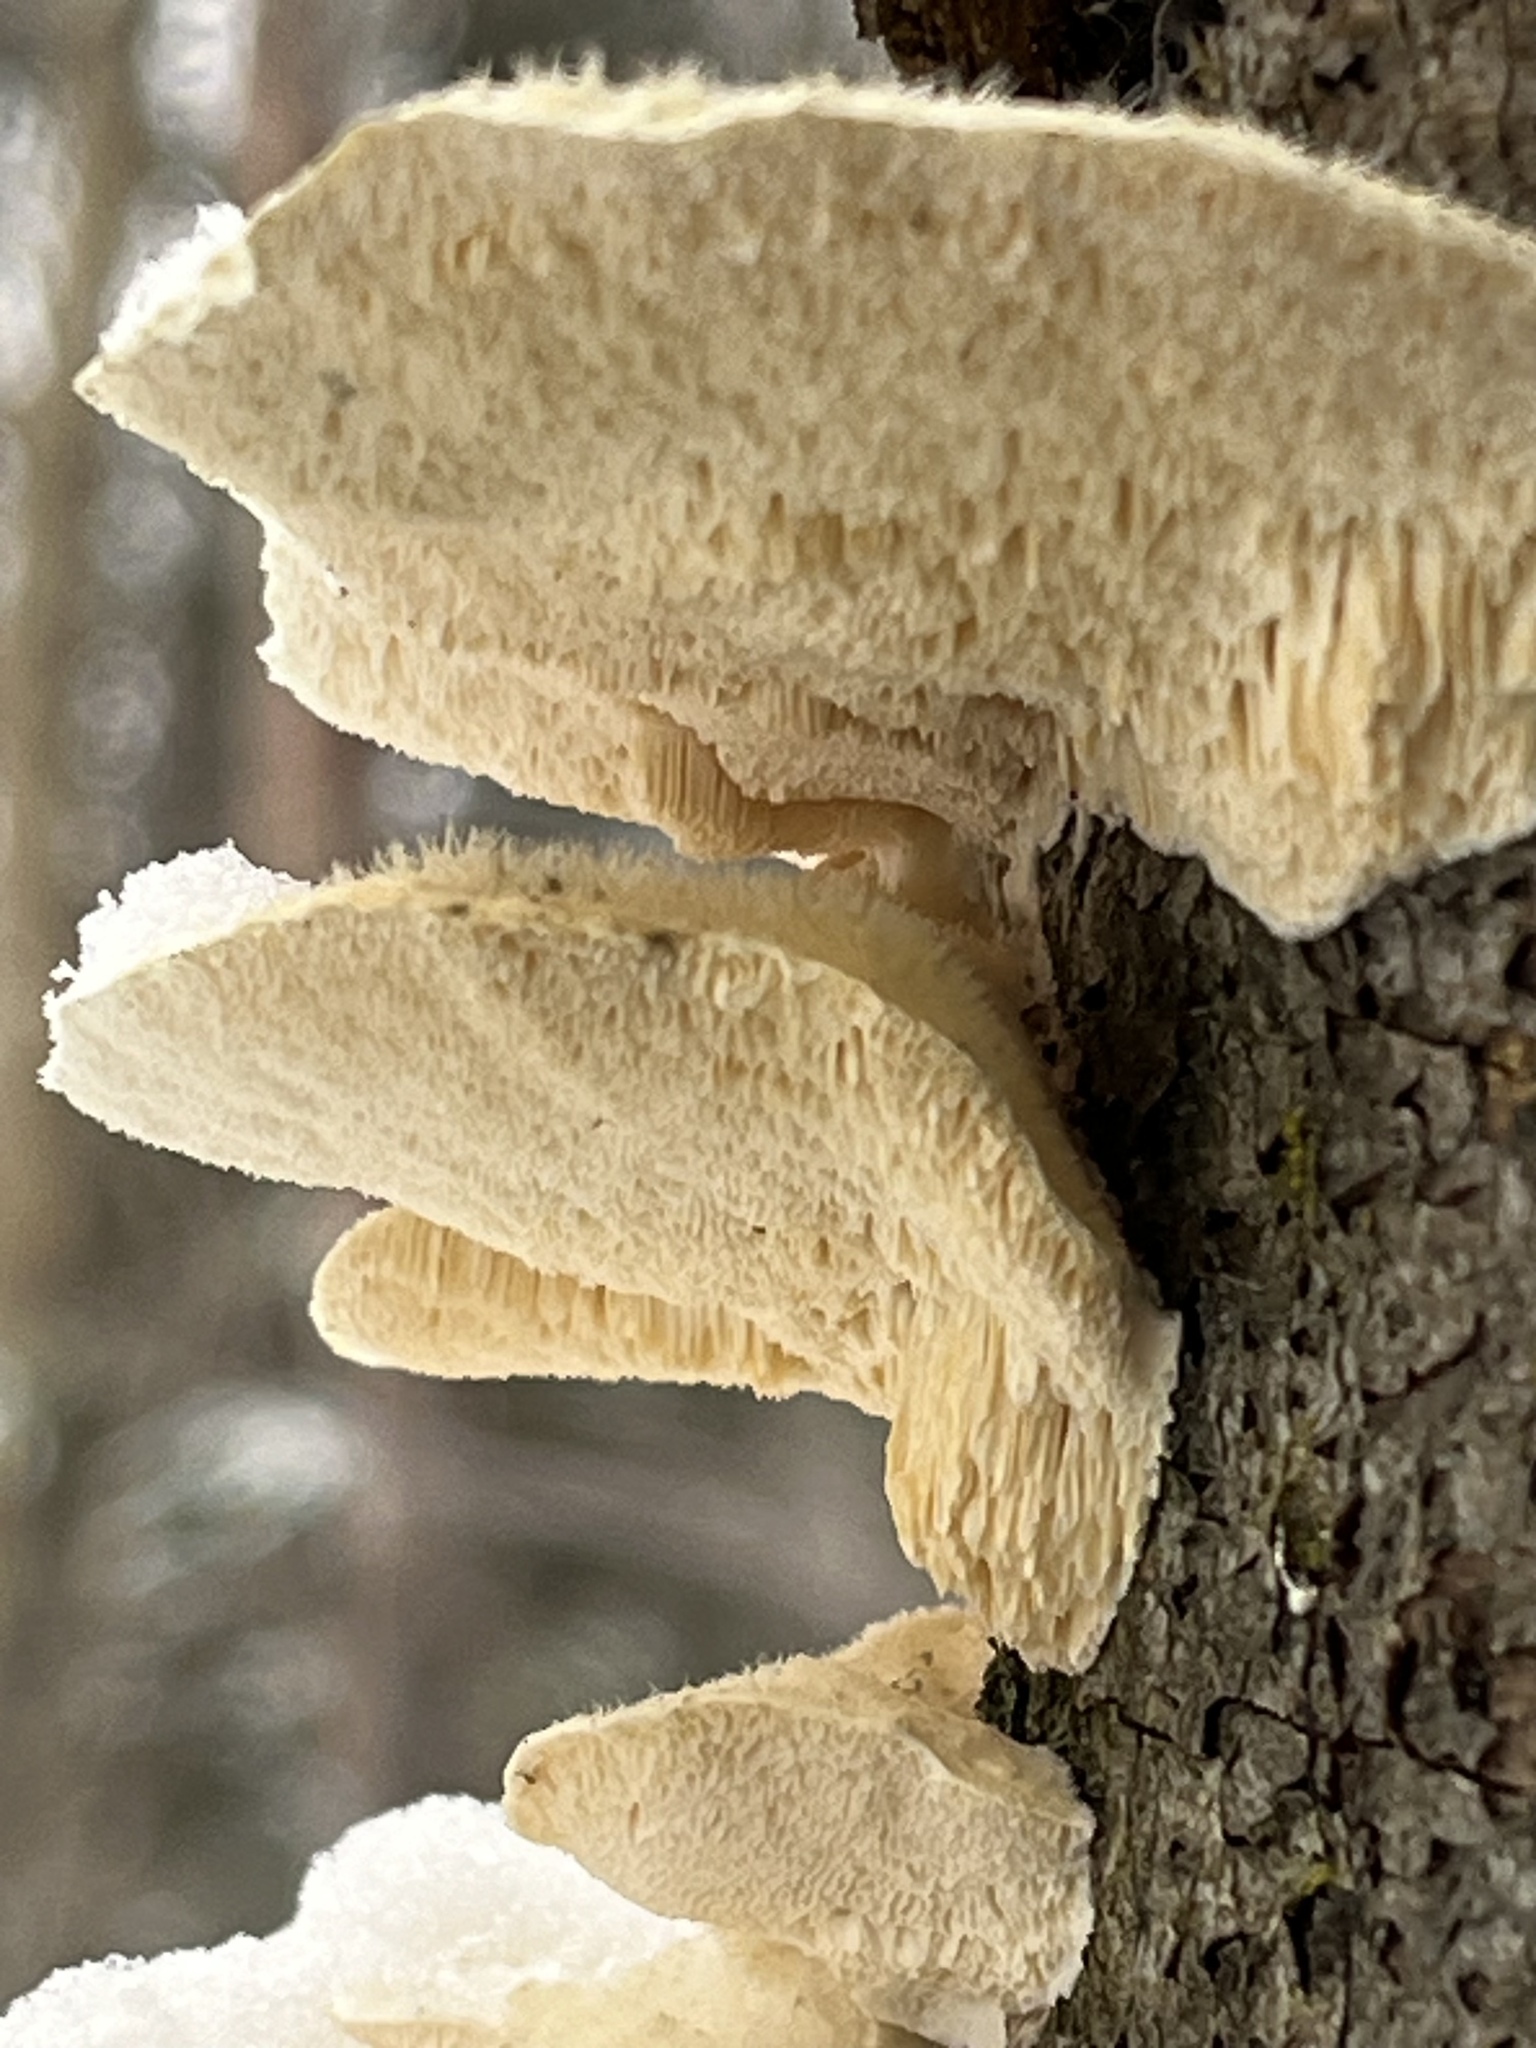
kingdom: Fungi
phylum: Basidiomycota
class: Agaricomycetes
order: Polyporales
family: Meruliaceae
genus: Irpiciporus
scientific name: Irpiciporus pachyodon
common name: Marshmallow polypore
